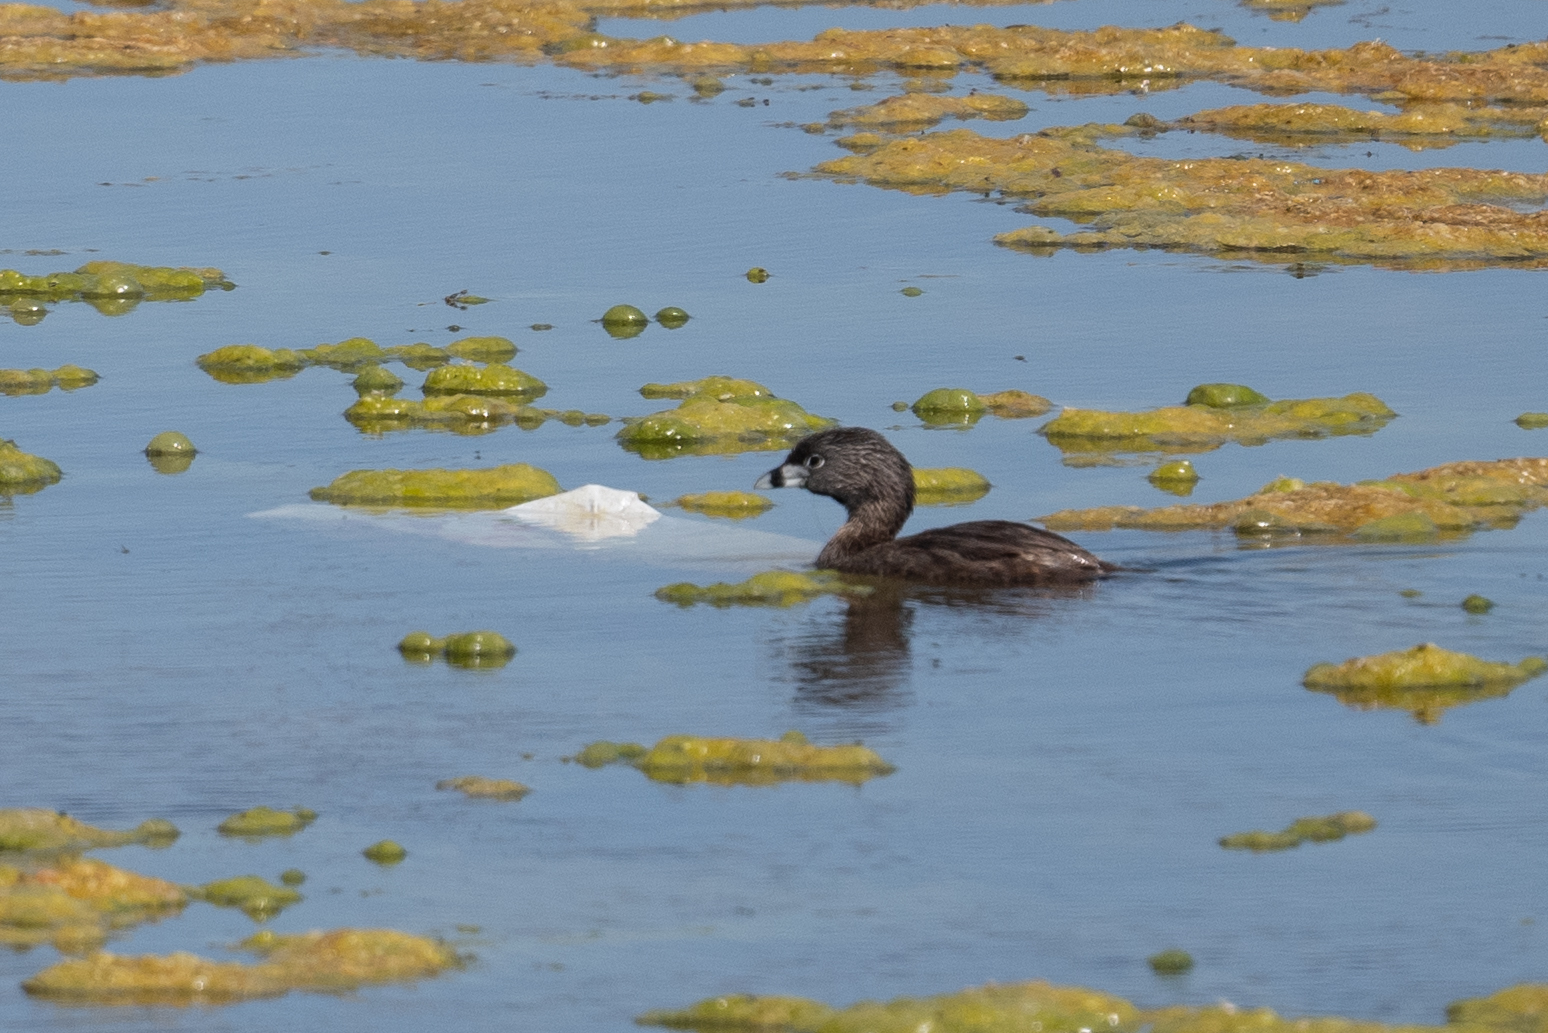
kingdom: Animalia
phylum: Chordata
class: Aves
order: Podicipediformes
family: Podicipedidae
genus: Podilymbus
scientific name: Podilymbus podiceps
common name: Pied-billed grebe
